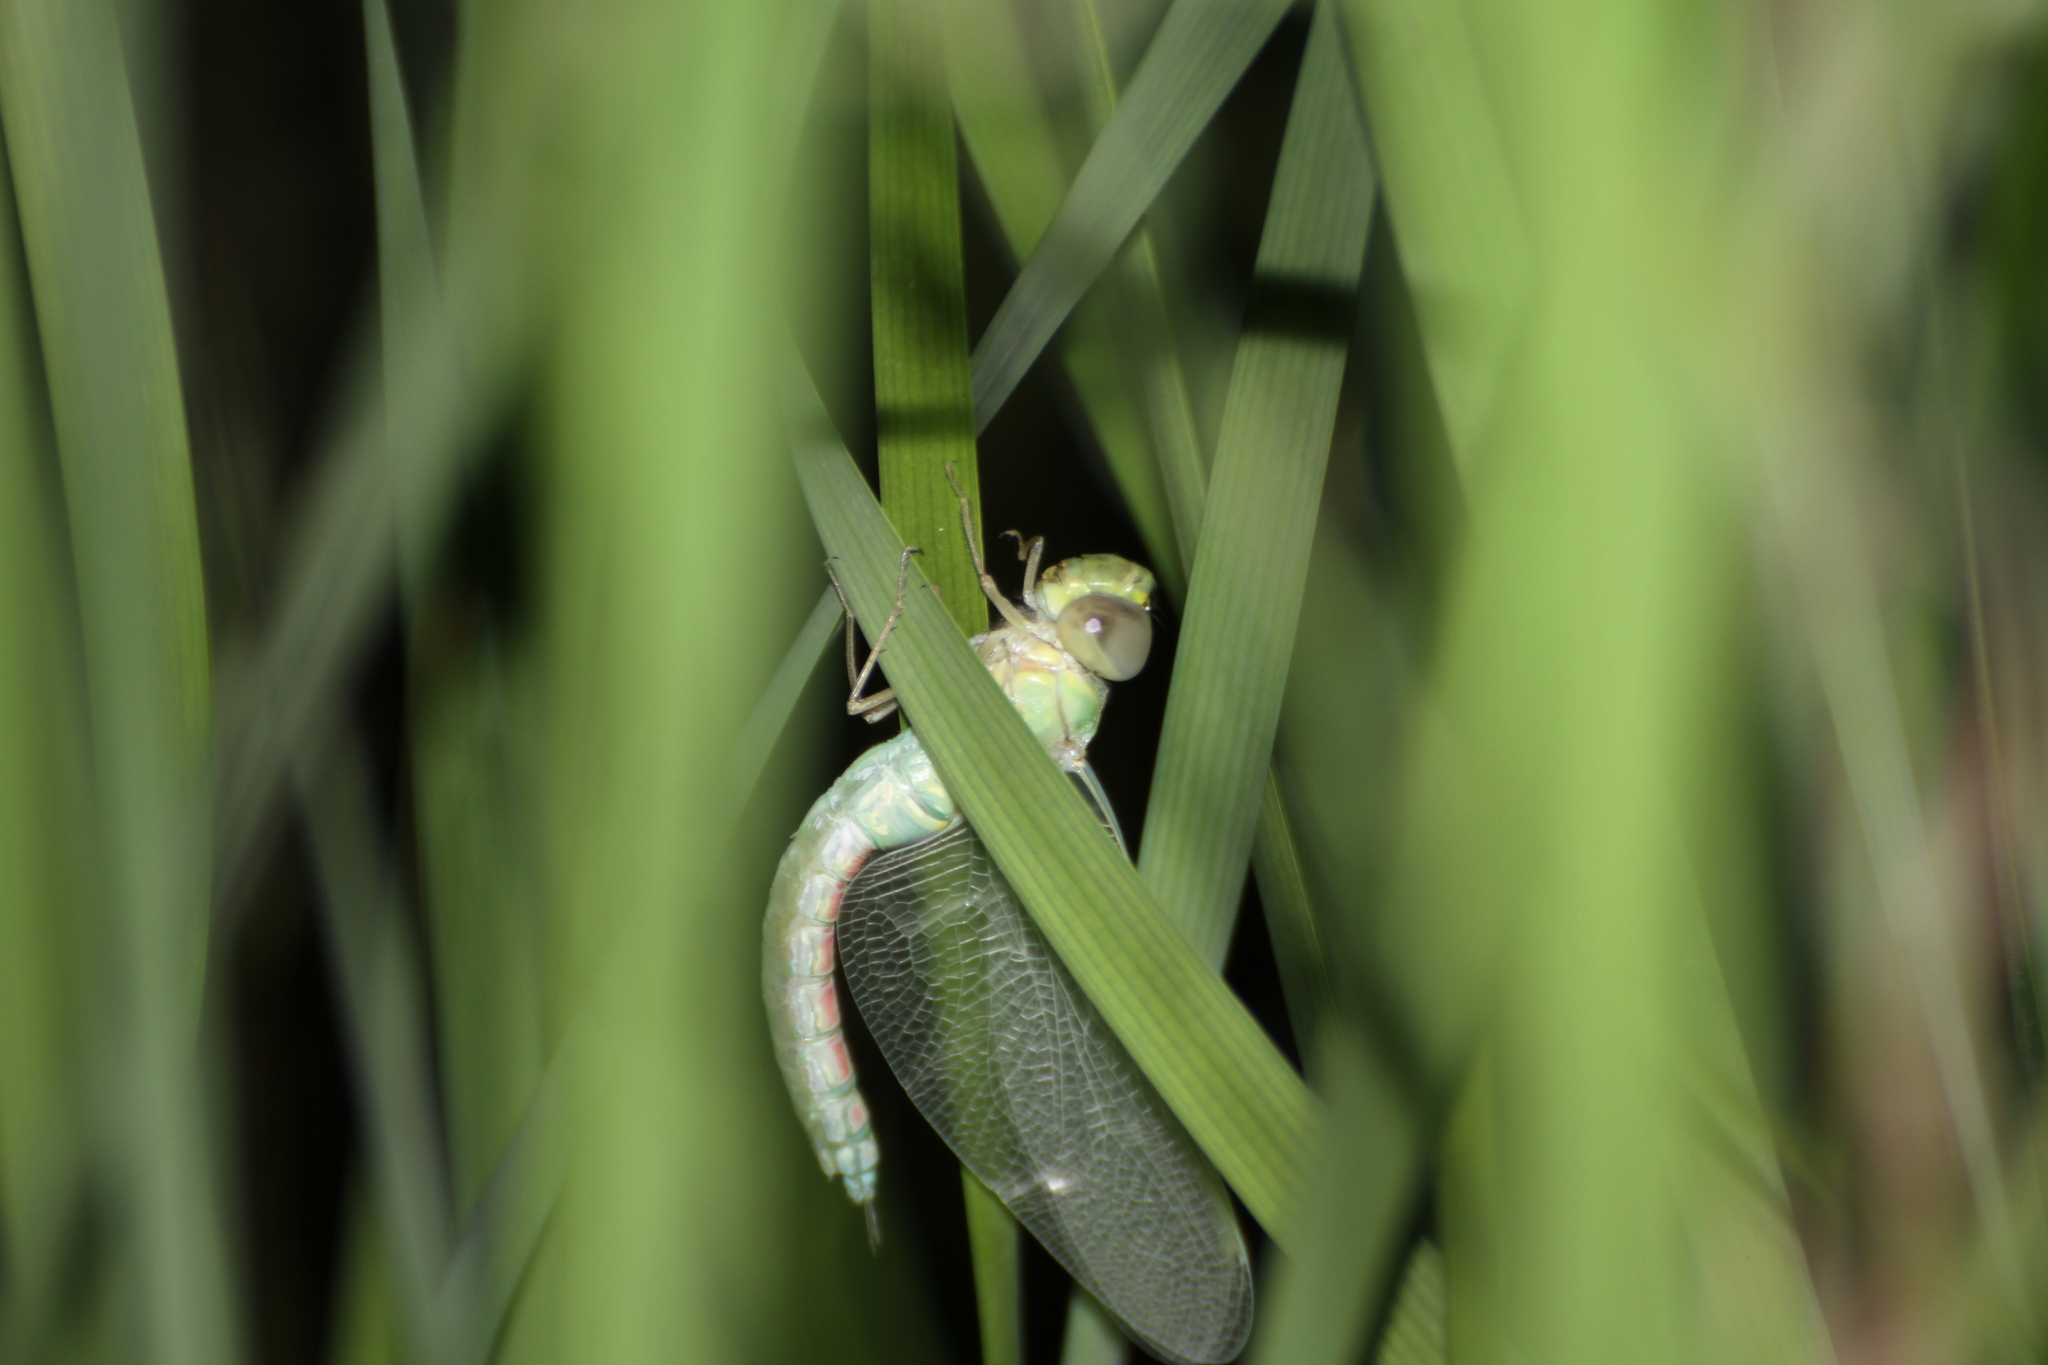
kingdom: Animalia
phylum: Arthropoda
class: Insecta
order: Odonata
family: Aeshnidae
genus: Anax
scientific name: Anax imperator
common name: Emperor dragonfly
